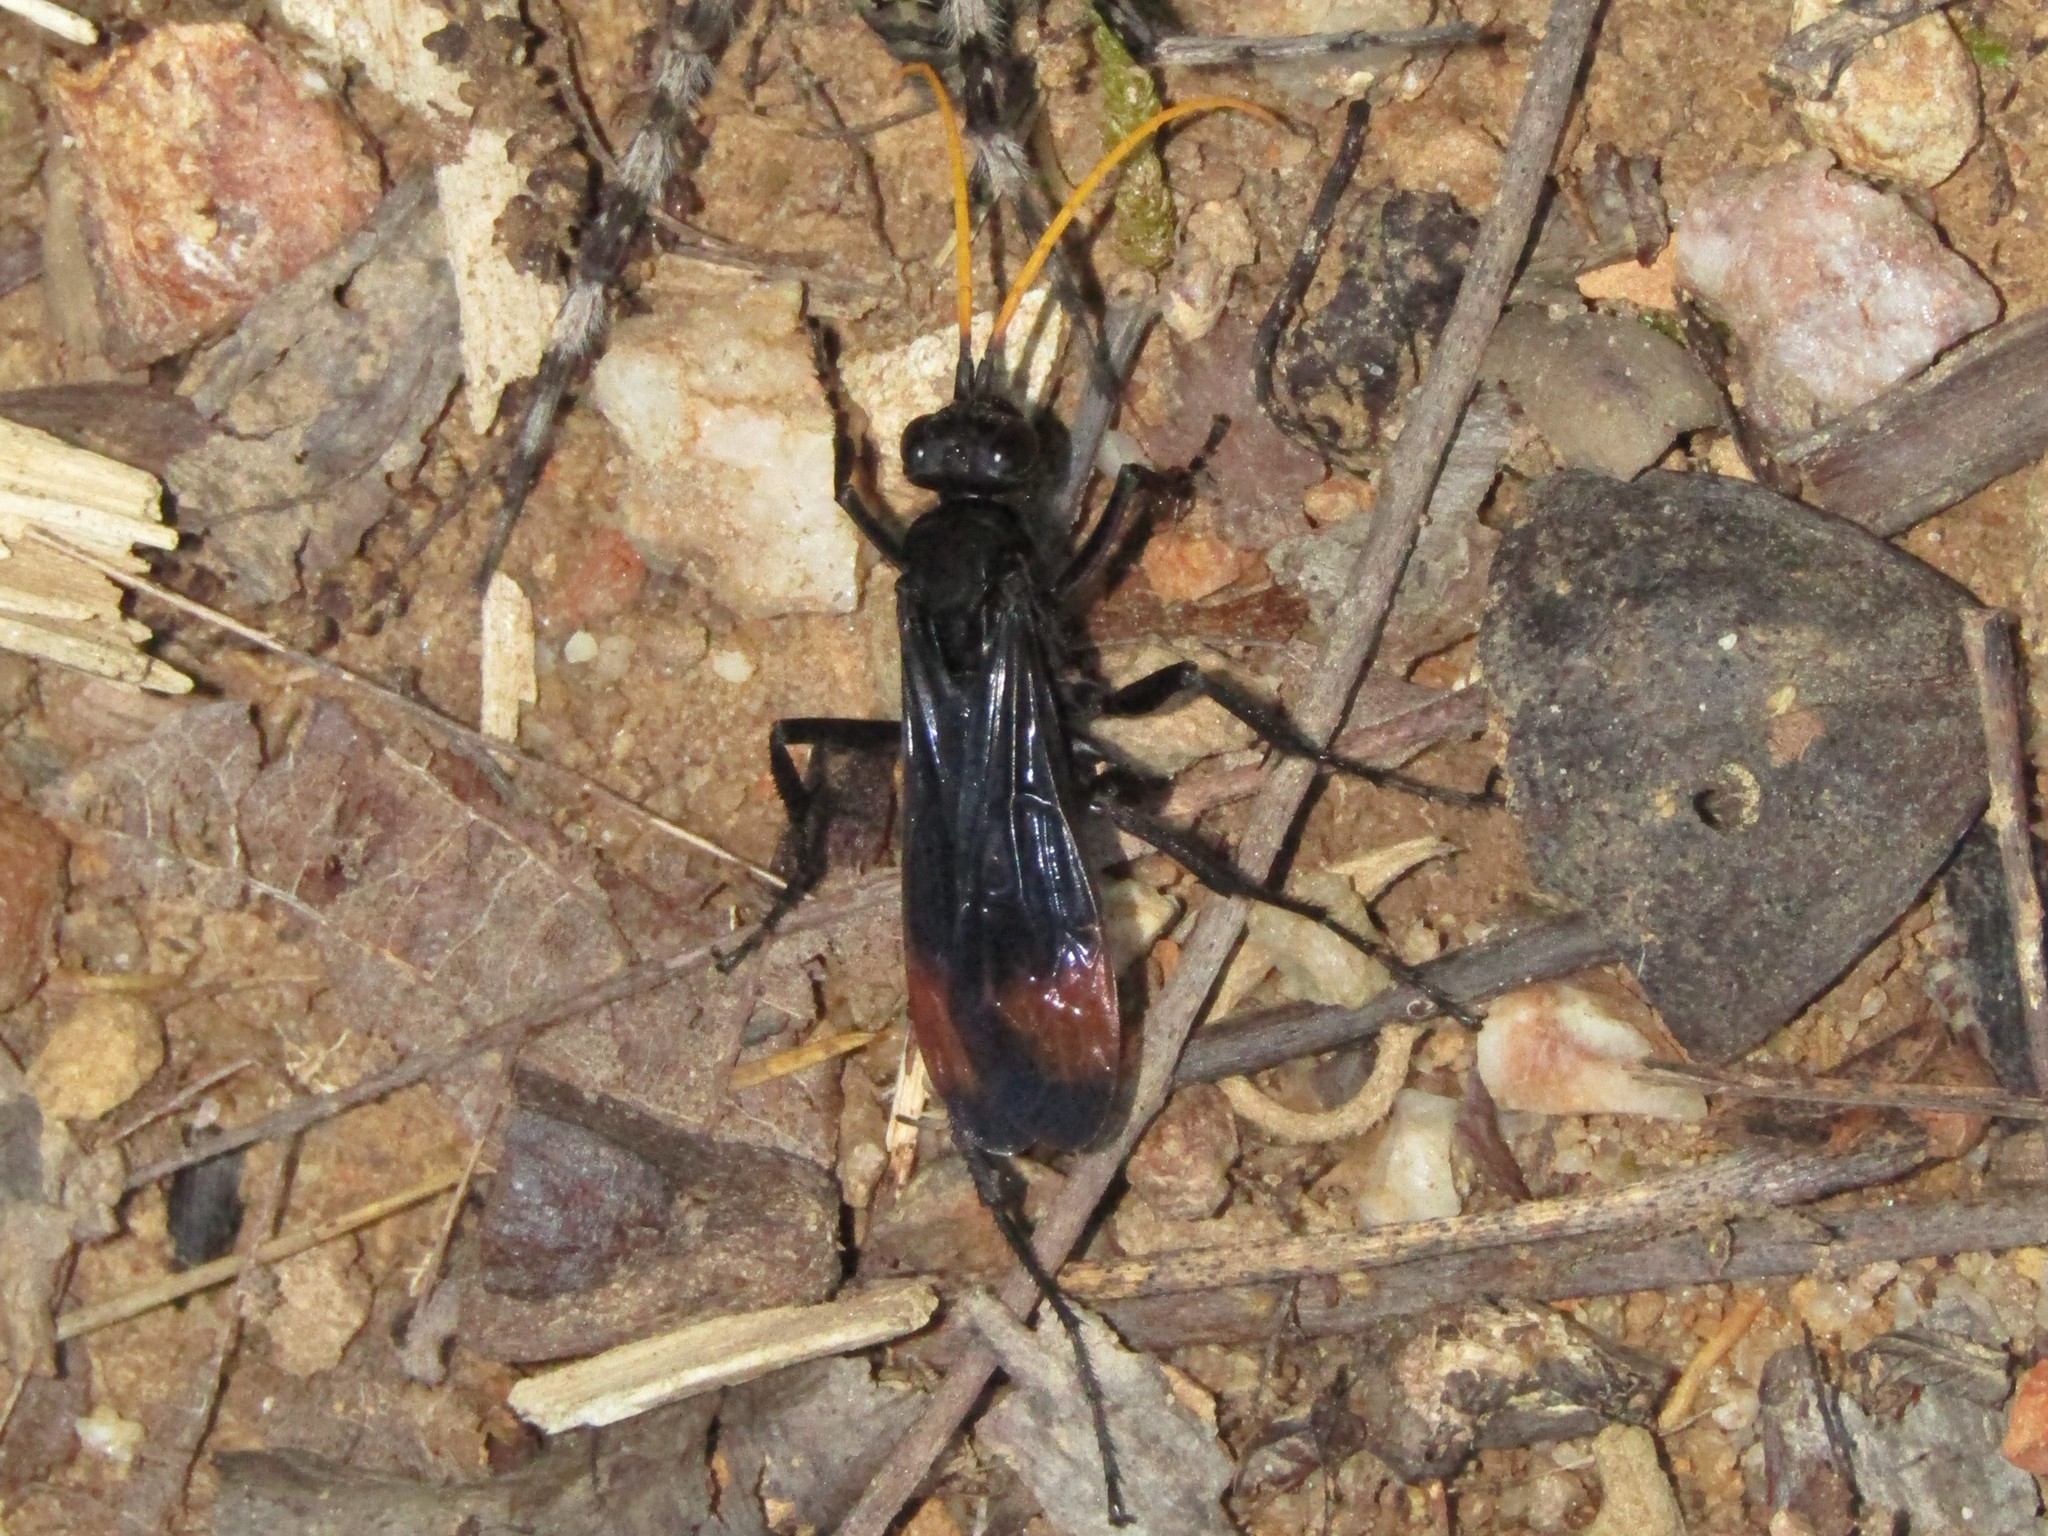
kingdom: Animalia
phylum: Arthropoda
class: Insecta
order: Hymenoptera
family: Pompilidae
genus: Entypus
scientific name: Entypus unifasciatus
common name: Eastern tawny-horned spider wasp
